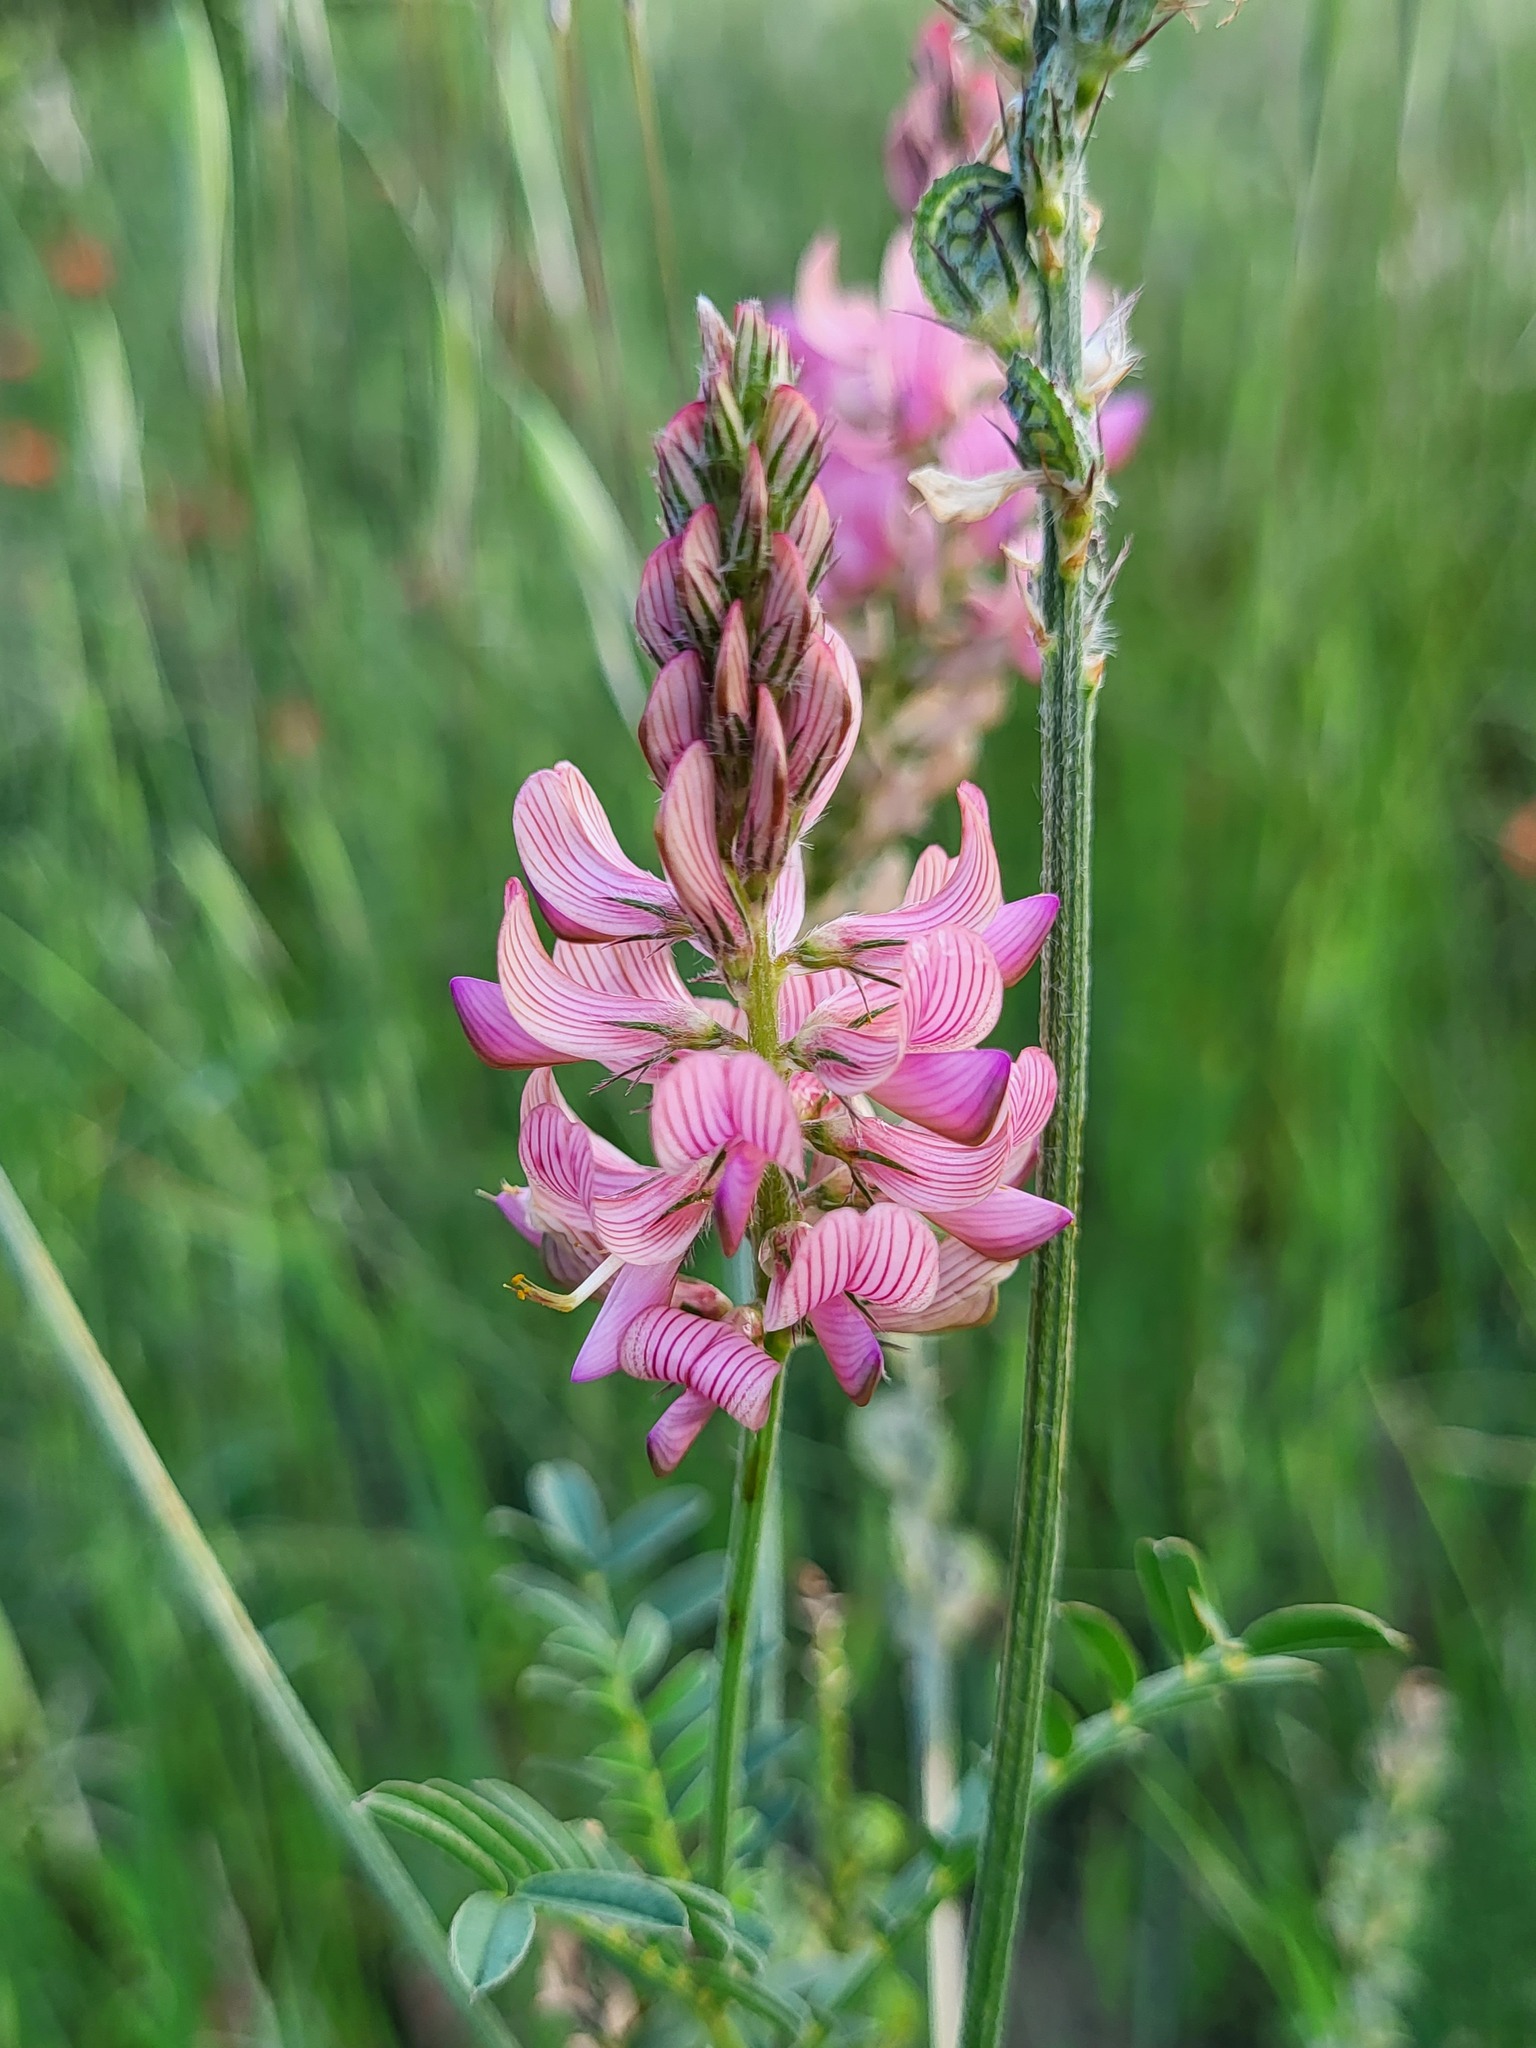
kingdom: Plantae
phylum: Tracheophyta
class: Magnoliopsida
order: Fabales
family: Fabaceae
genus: Onobrychis
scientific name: Onobrychis viciifolia
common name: Sainfoin
